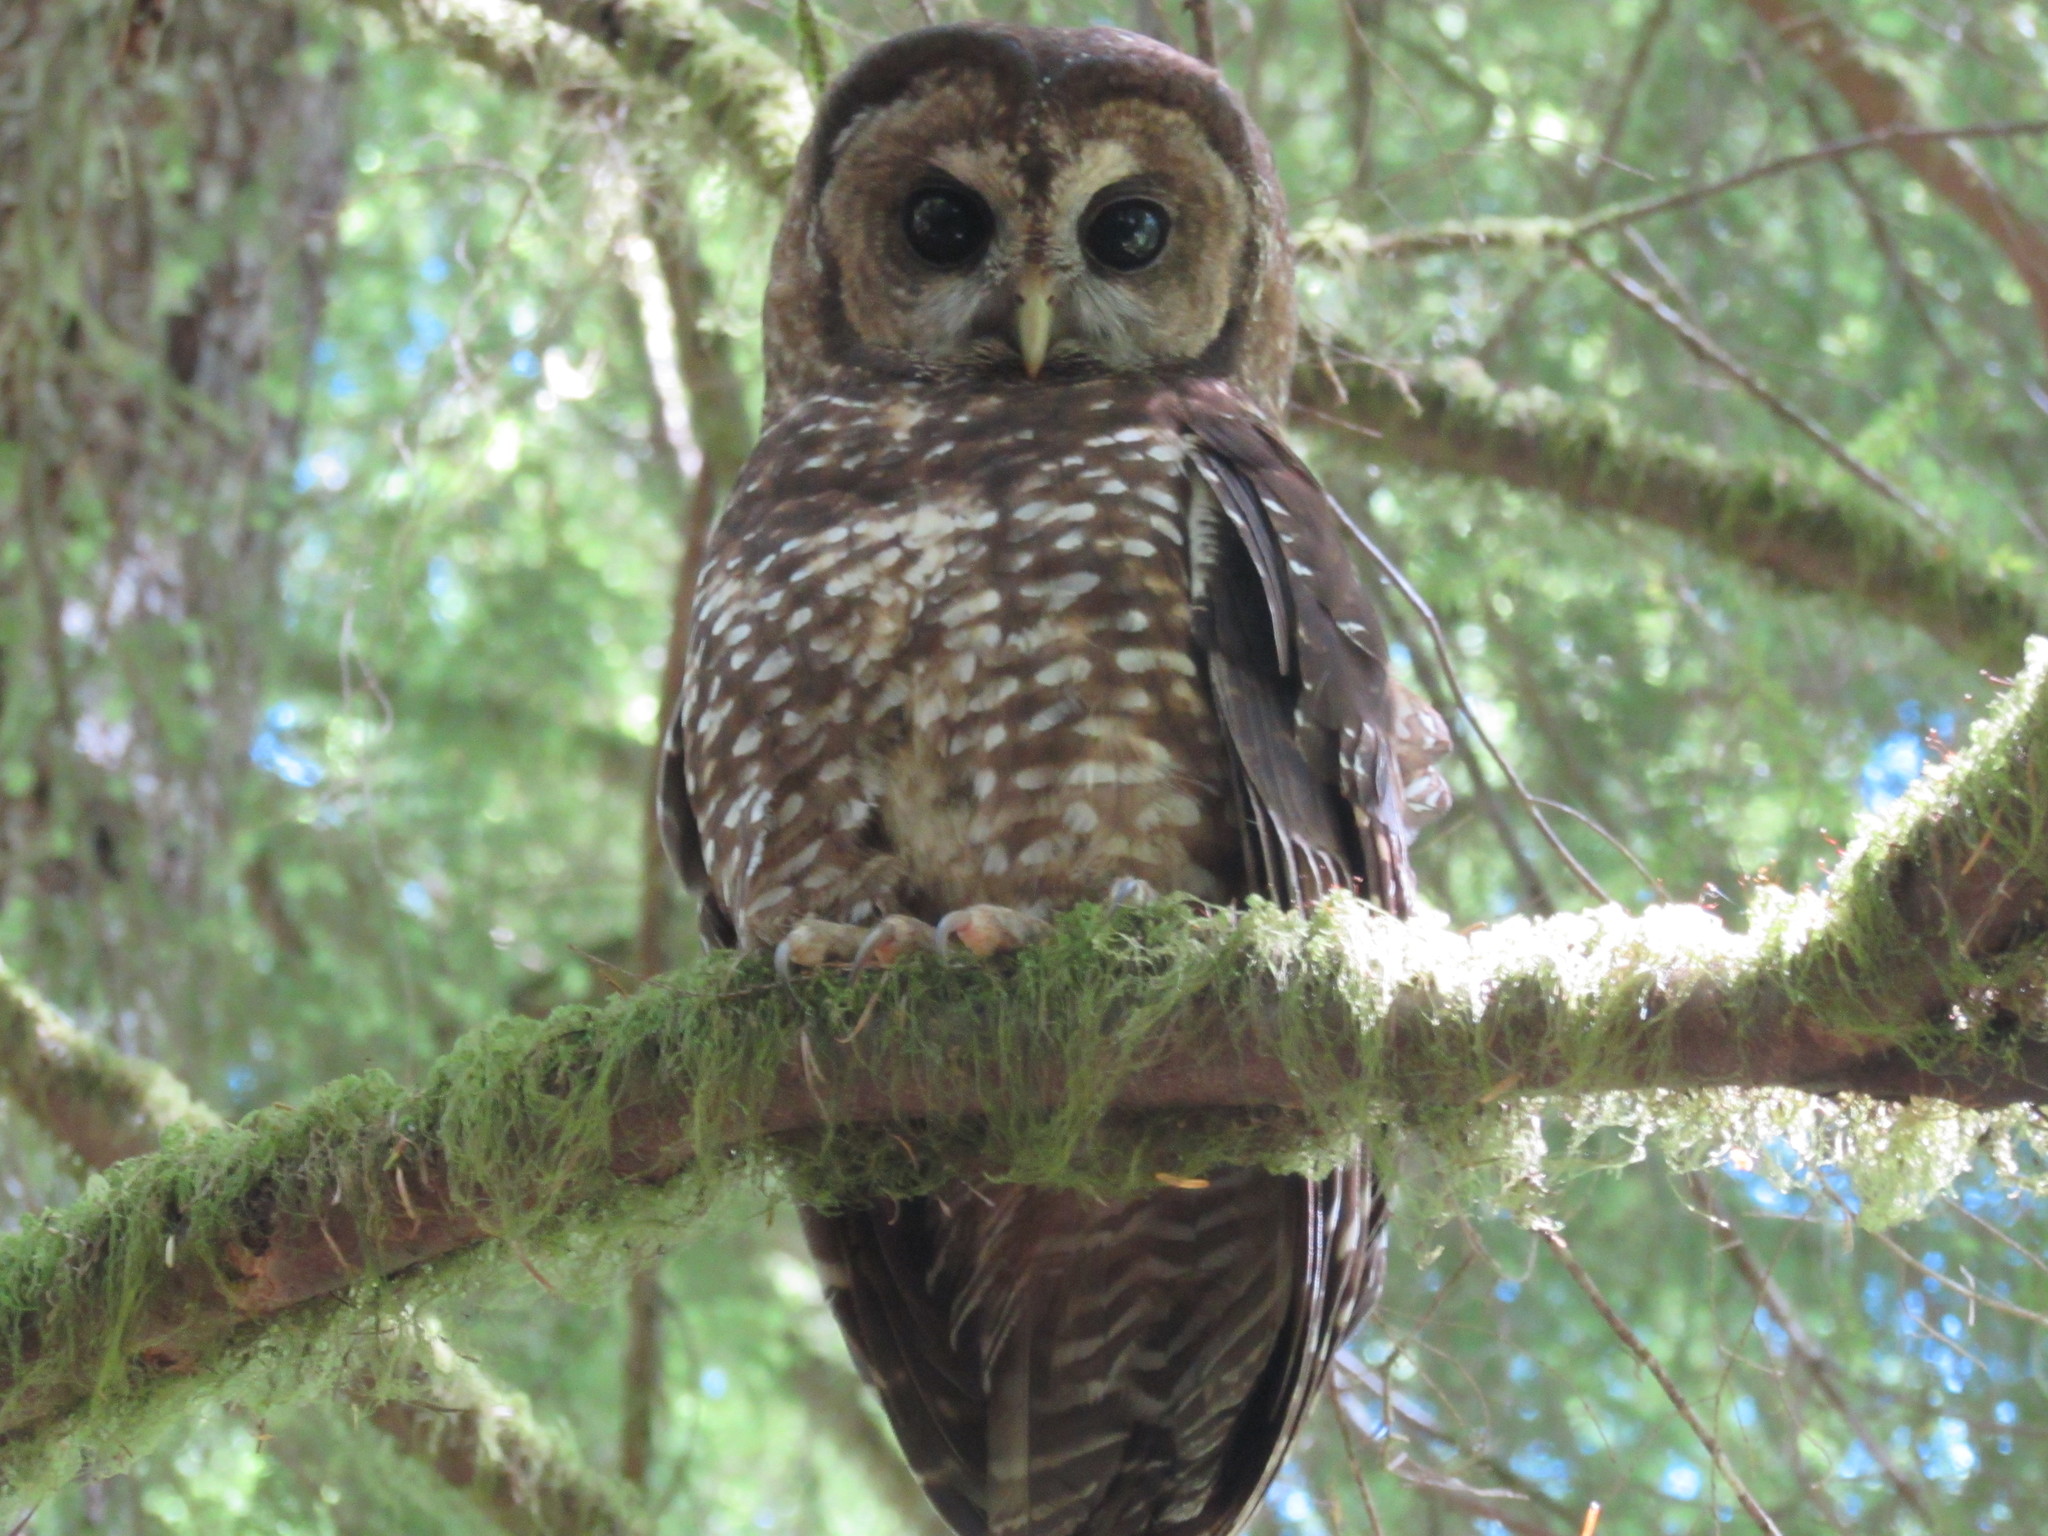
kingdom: Animalia
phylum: Chordata
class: Aves
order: Strigiformes
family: Strigidae
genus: Strix
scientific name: Strix occidentalis
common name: Spotted owl
